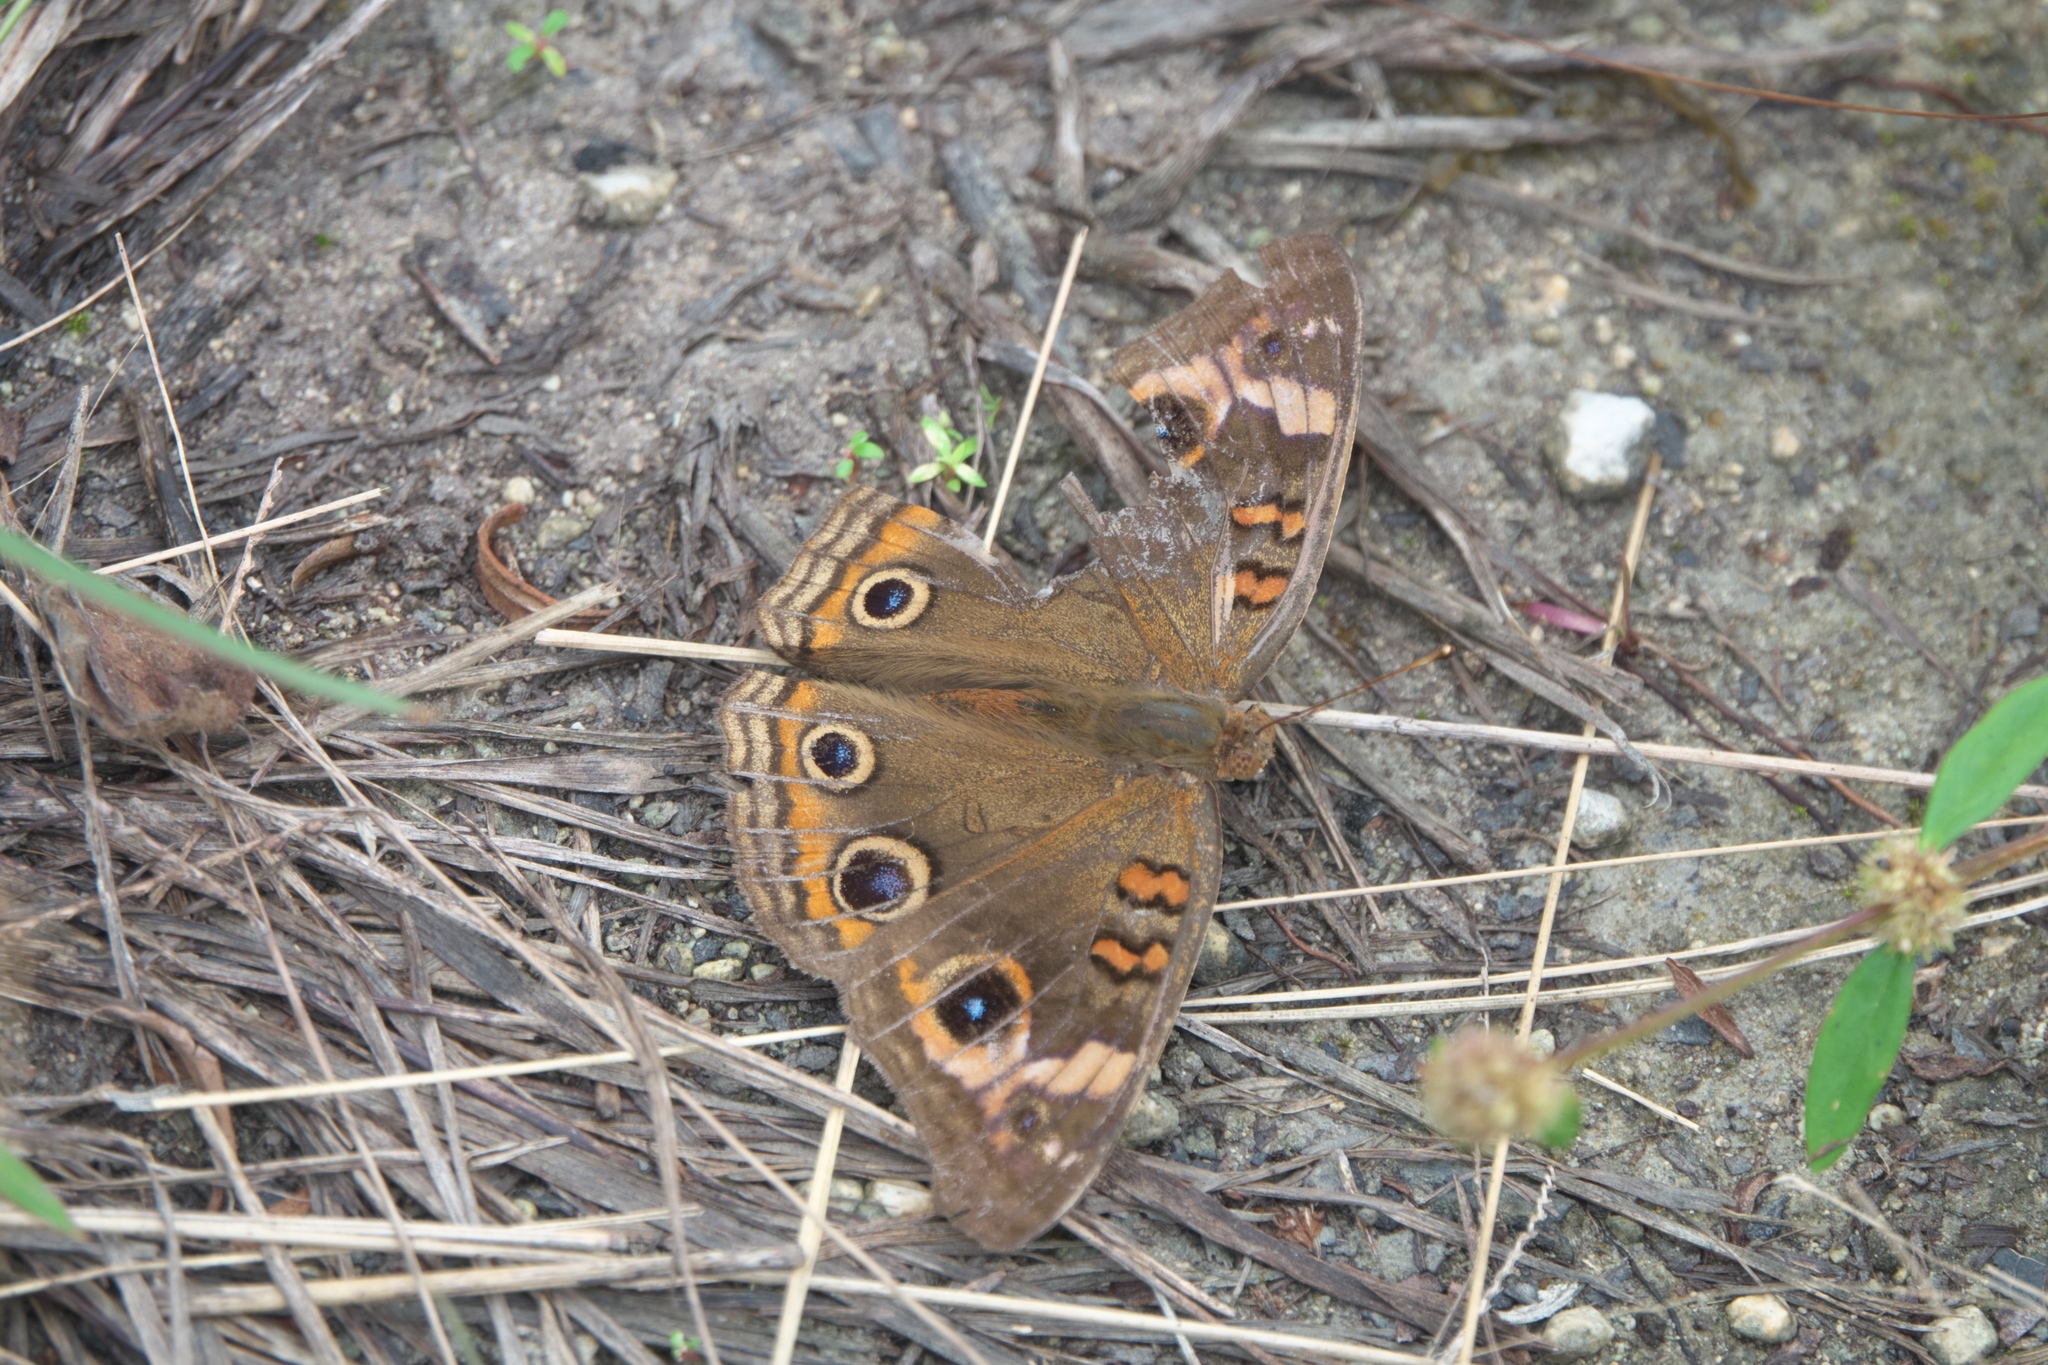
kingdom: Animalia
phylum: Arthropoda
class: Insecta
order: Lepidoptera
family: Nymphalidae
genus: Junonia
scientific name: Junonia neildi
